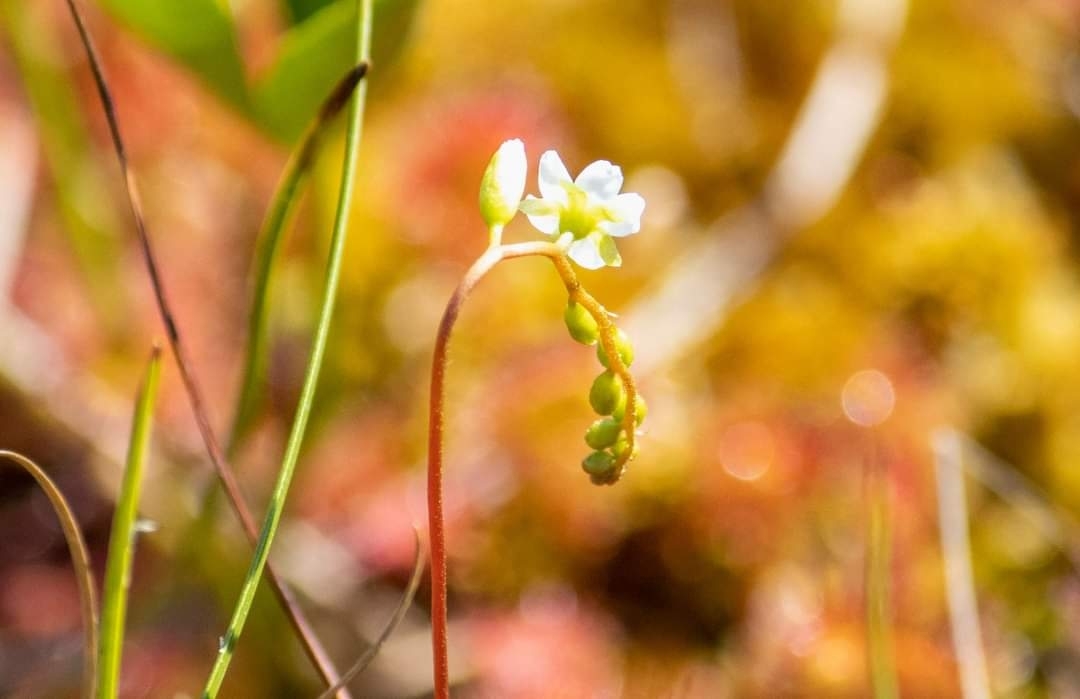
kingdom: Plantae
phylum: Tracheophyta
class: Magnoliopsida
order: Caryophyllales
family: Droseraceae
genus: Drosera
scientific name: Drosera rotundifolia
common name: Round-leaved sundew
